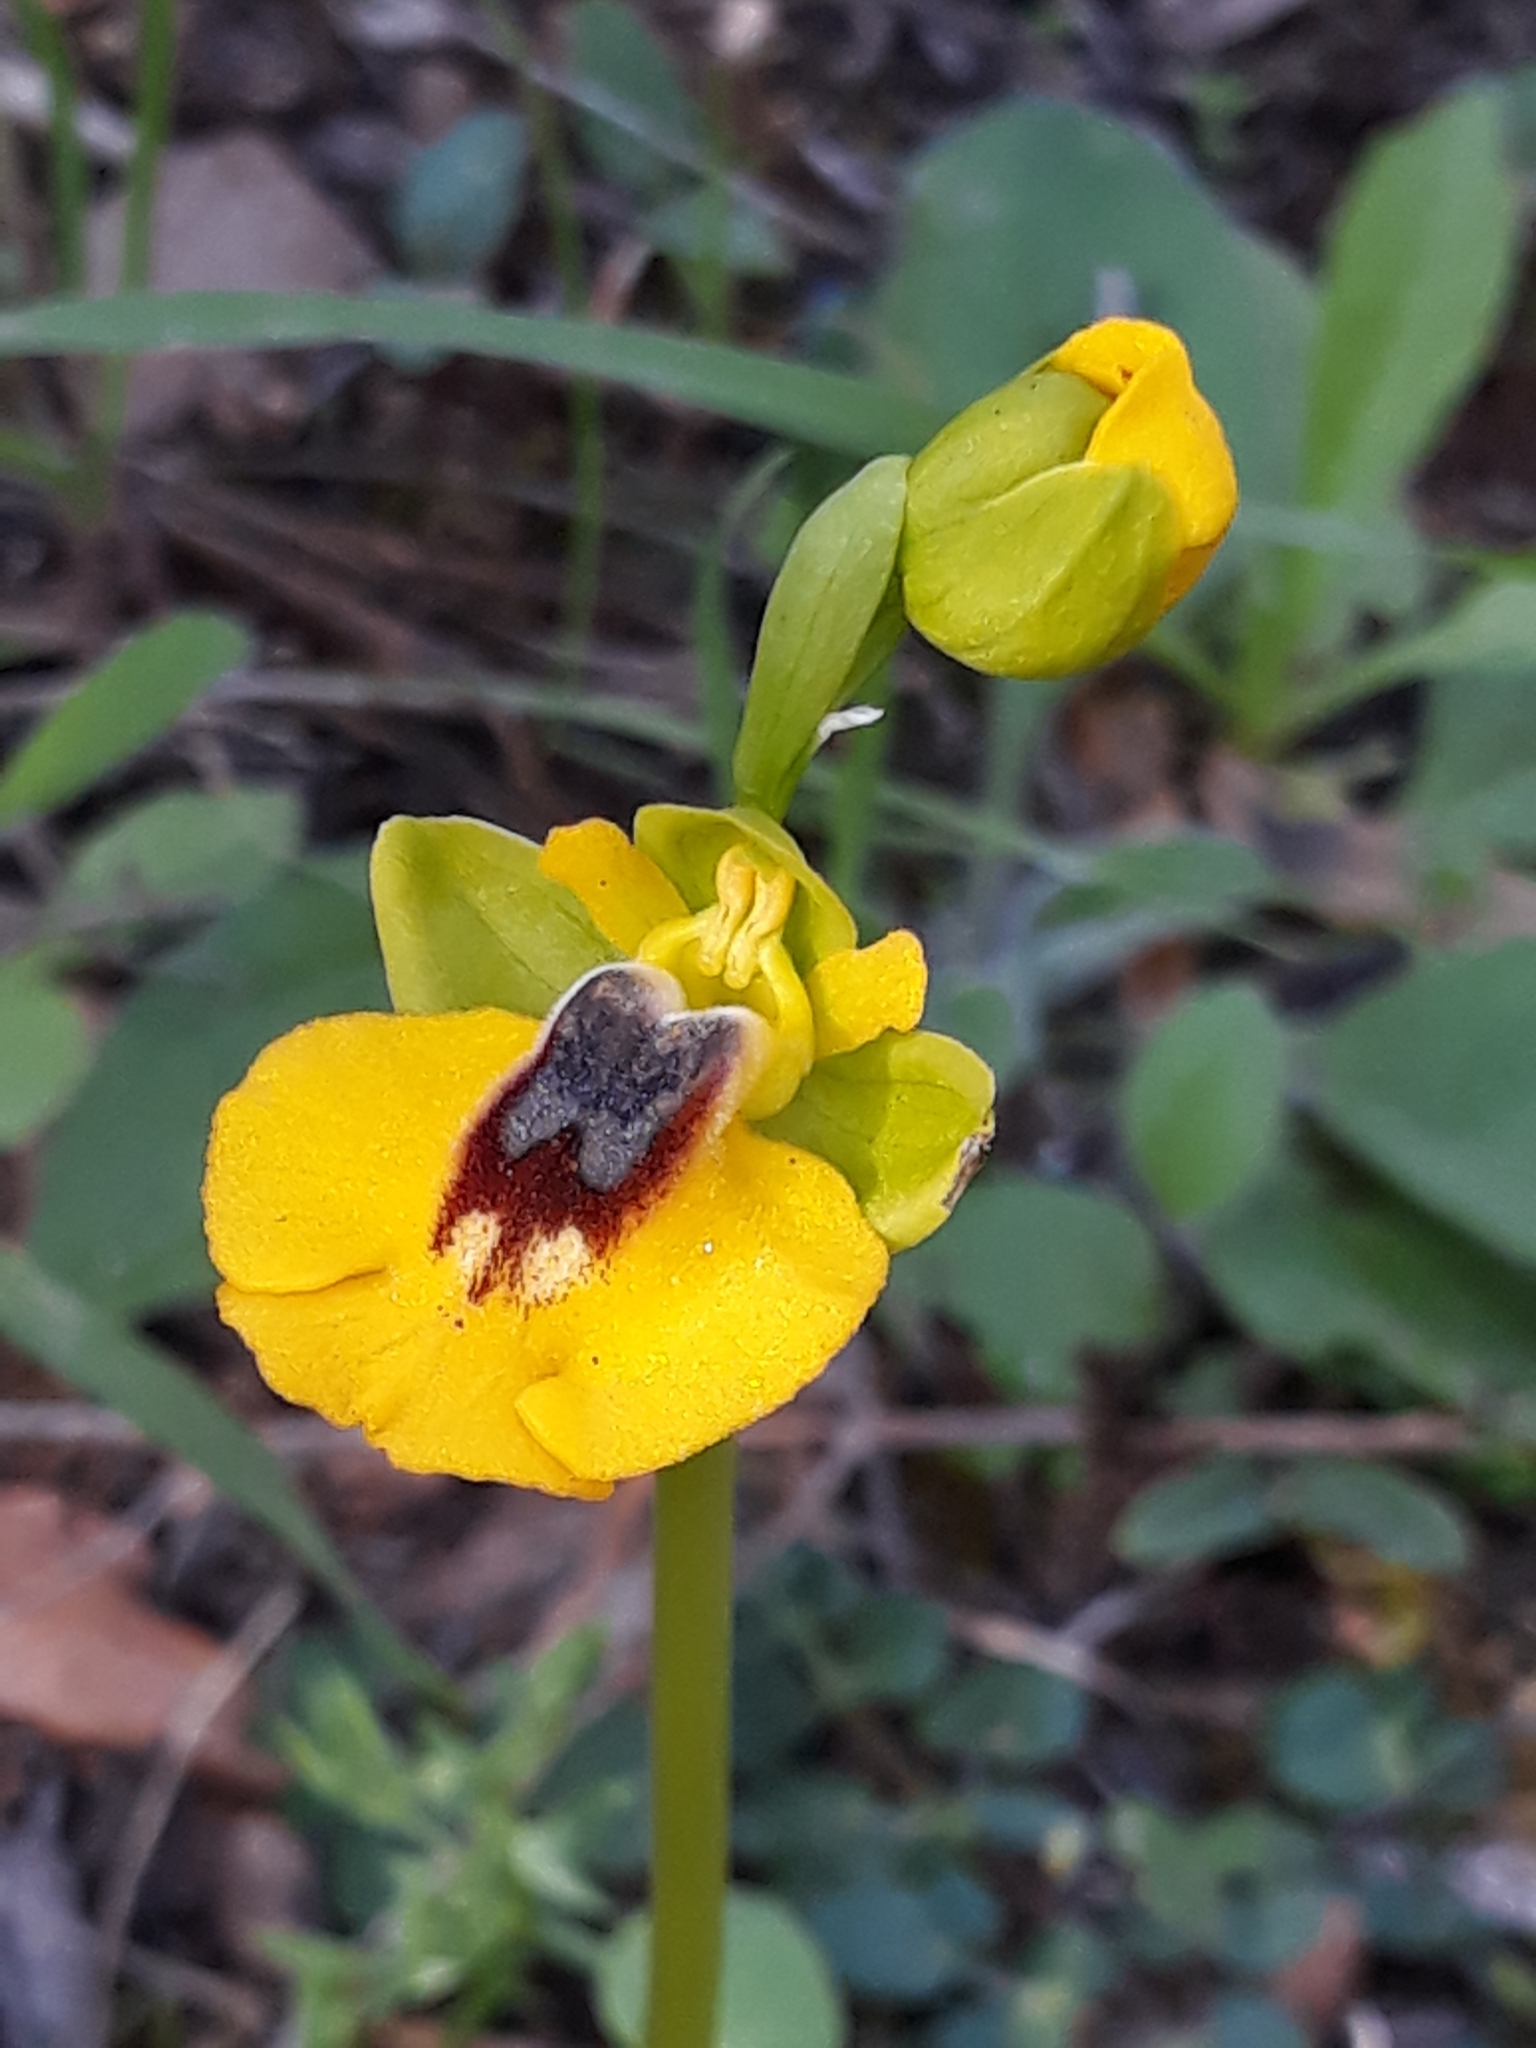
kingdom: Plantae
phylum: Tracheophyta
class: Liliopsida
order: Asparagales
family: Orchidaceae
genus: Ophrys
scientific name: Ophrys lutea
